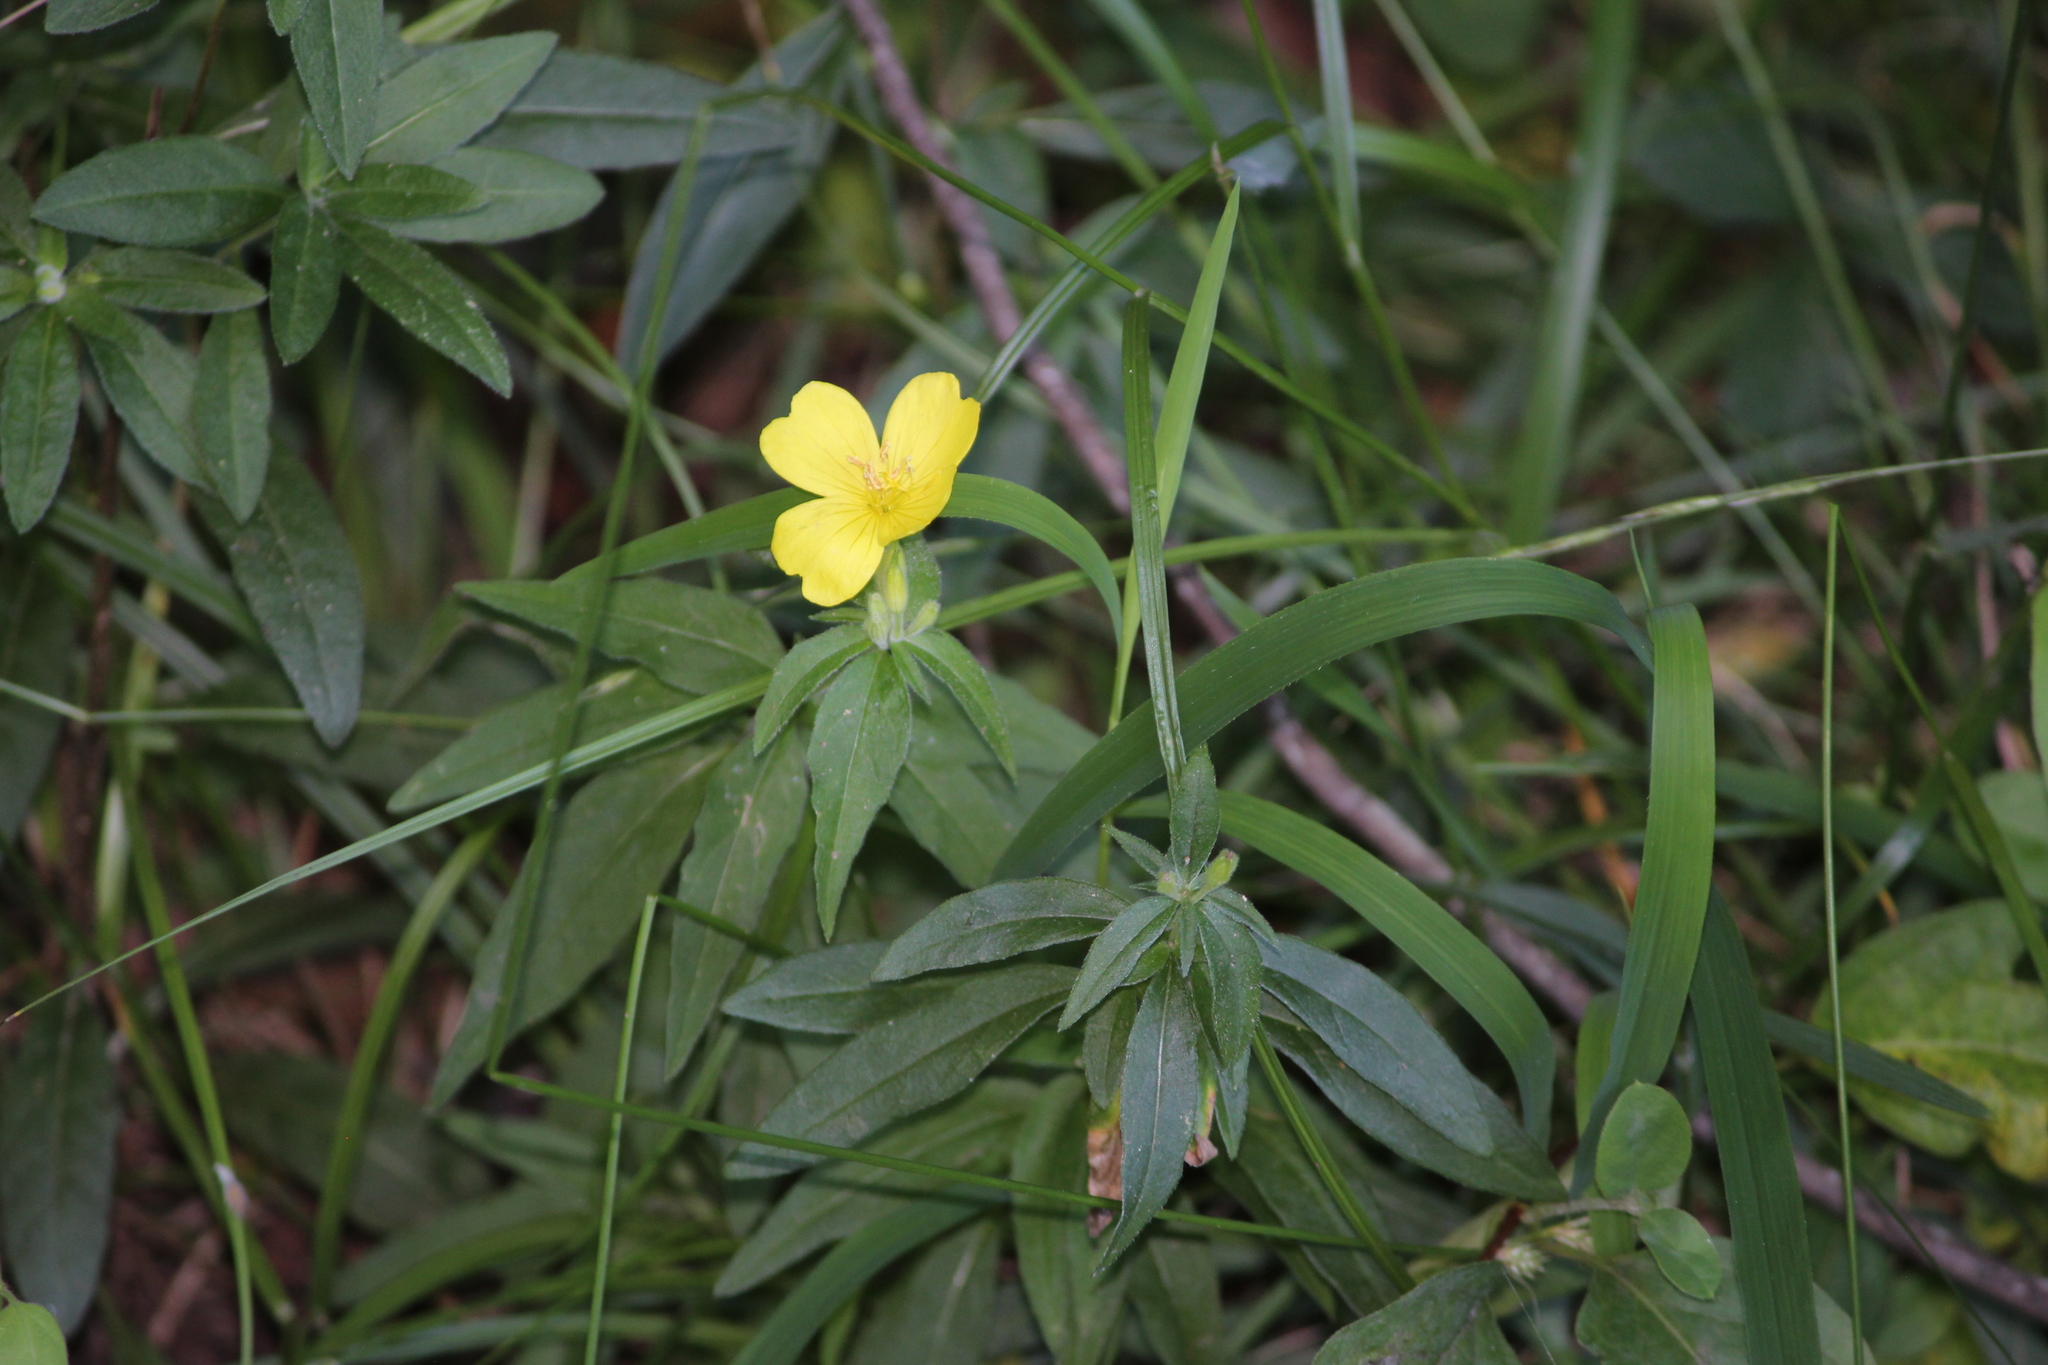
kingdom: Plantae
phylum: Tracheophyta
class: Magnoliopsida
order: Myrtales
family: Onagraceae
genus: Oenothera
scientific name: Oenothera fruticosa
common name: Southern sundrops
